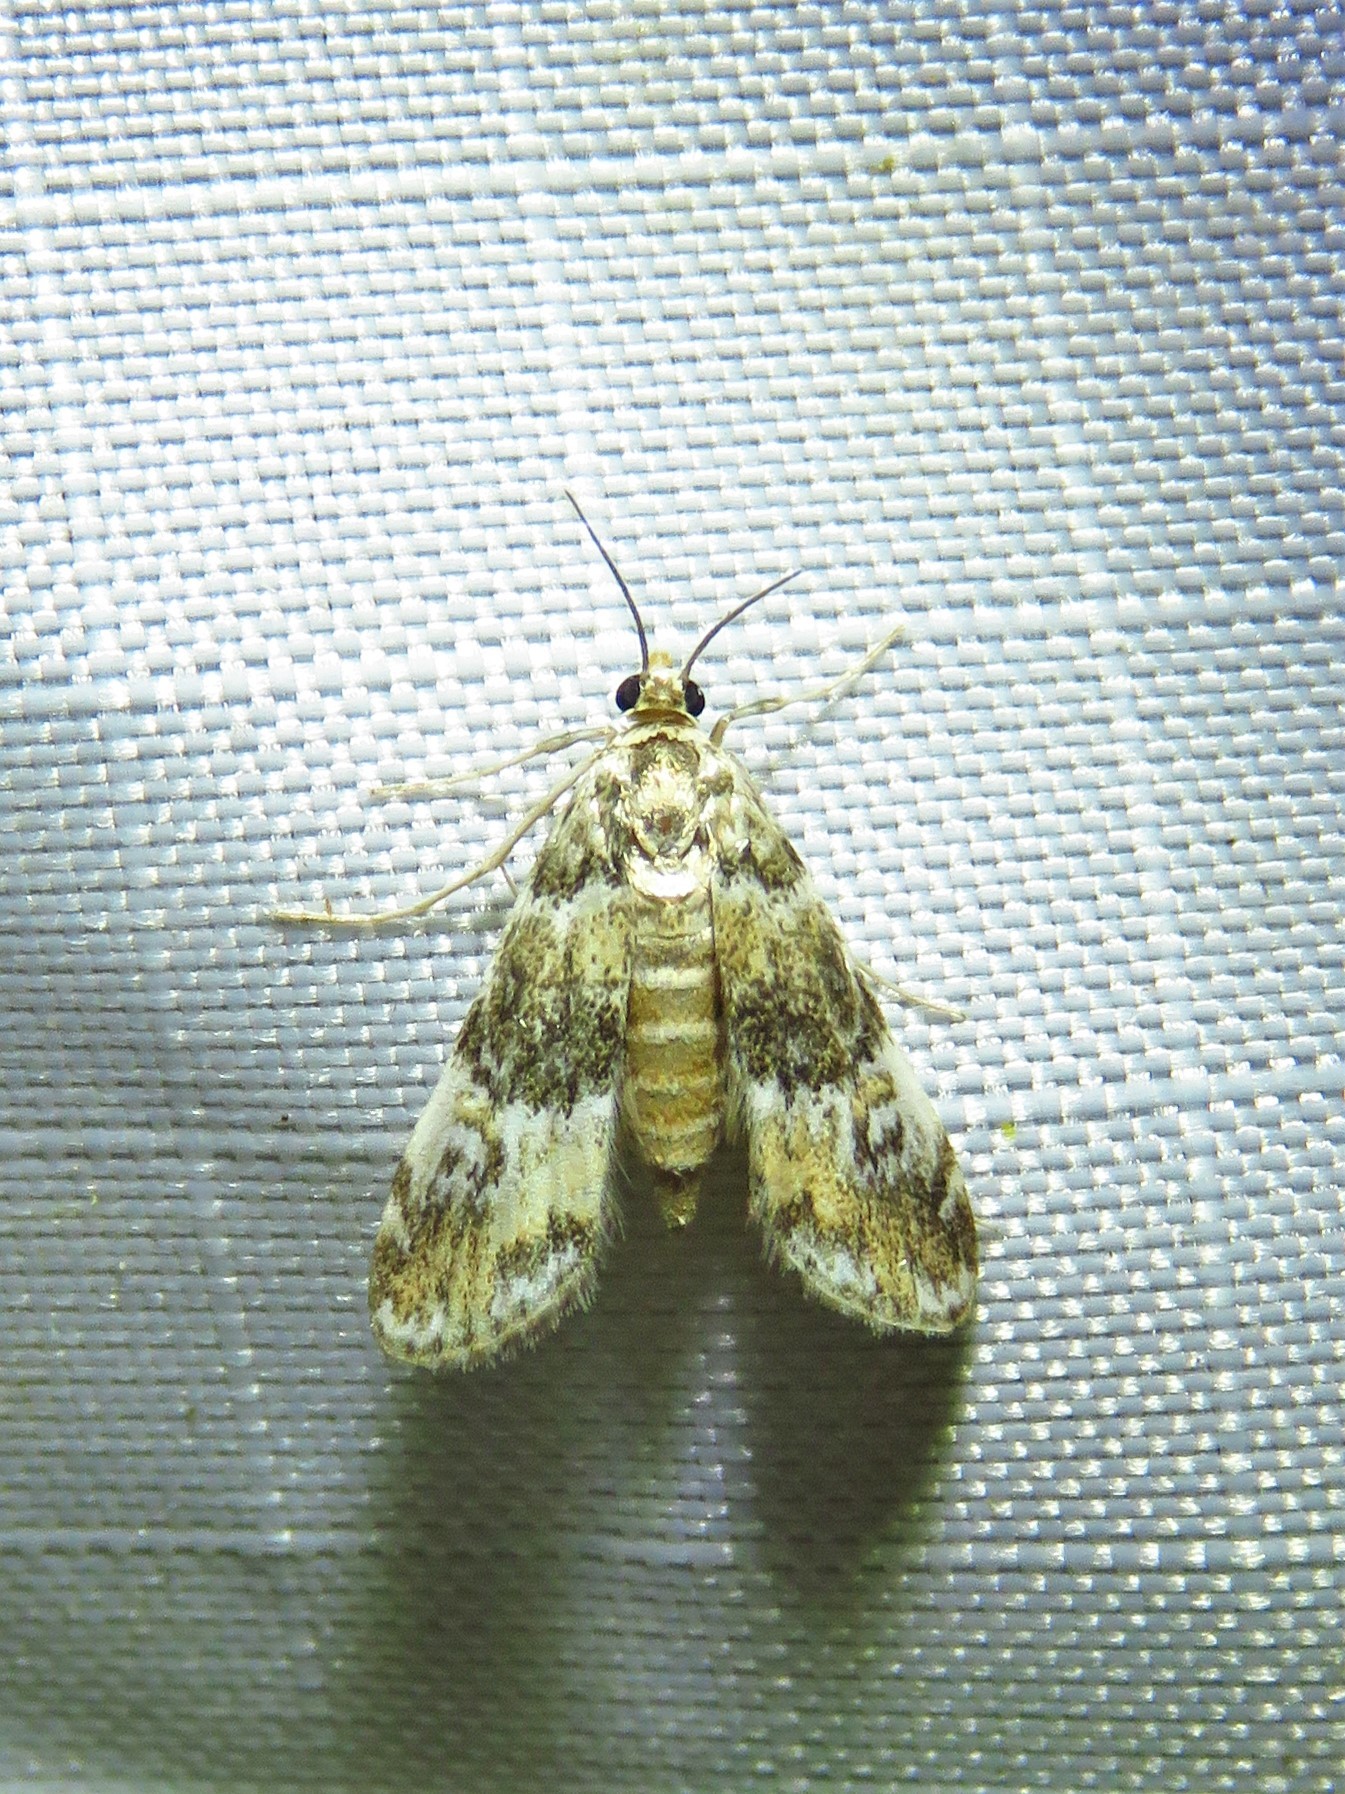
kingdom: Animalia
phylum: Arthropoda
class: Insecta
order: Lepidoptera
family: Crambidae
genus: Elophila
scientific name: Elophila obliteralis
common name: Waterlily leafcutter moth
